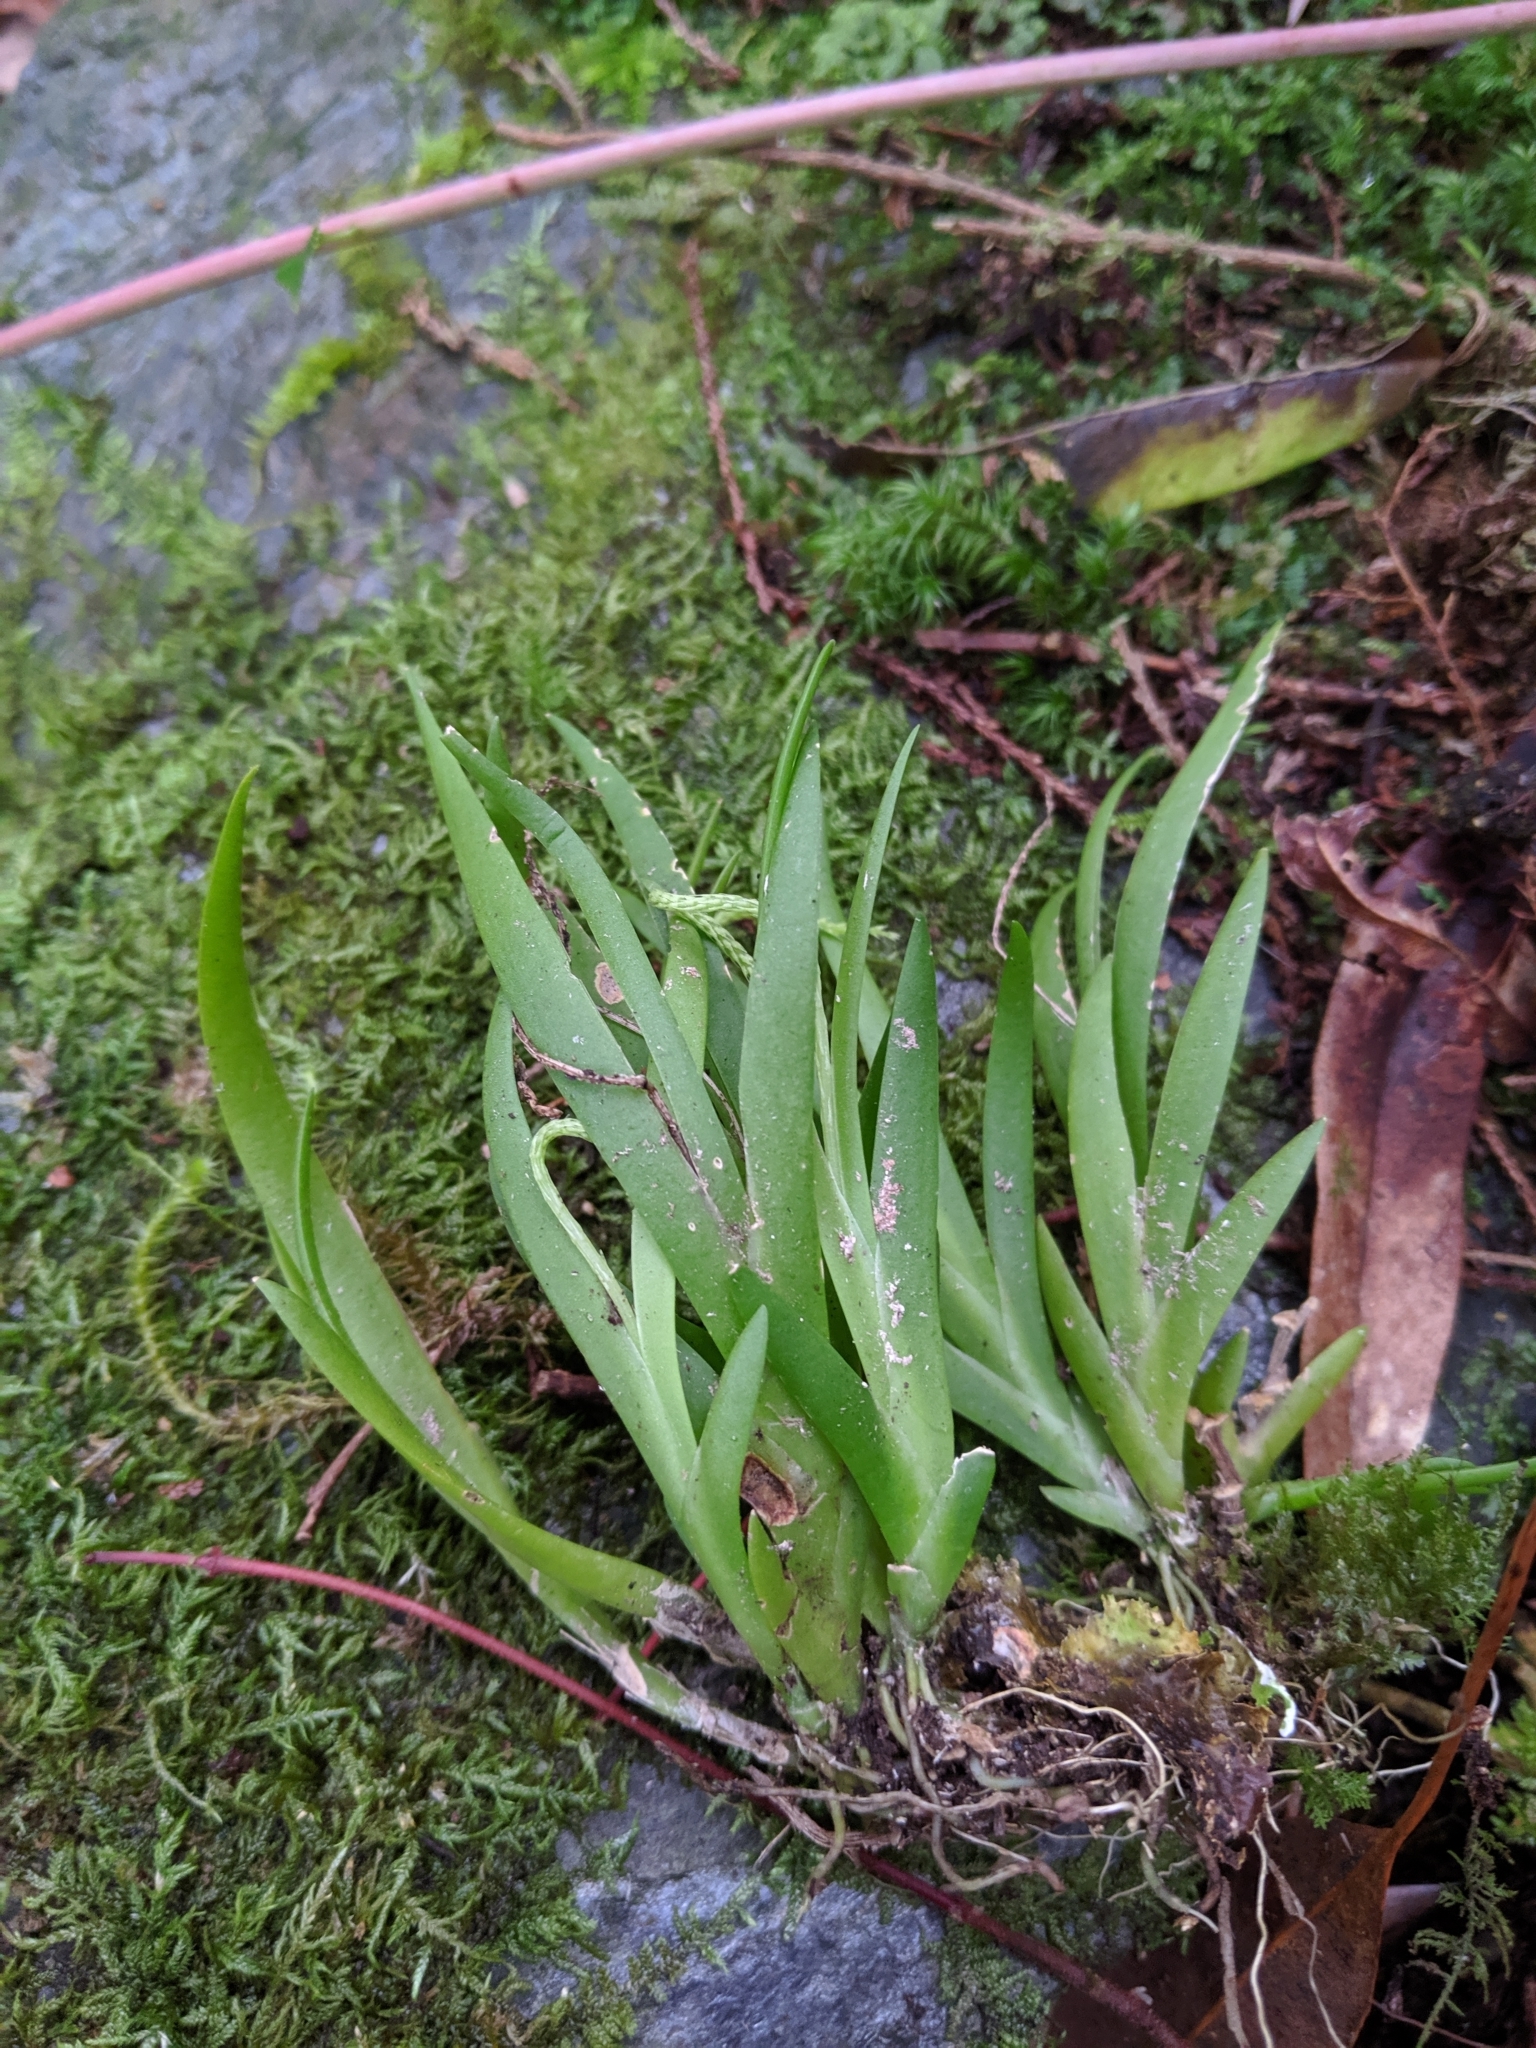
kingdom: Plantae
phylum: Tracheophyta
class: Liliopsida
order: Asparagales
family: Orchidaceae
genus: Oberonia
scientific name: Oberonia caulescens
